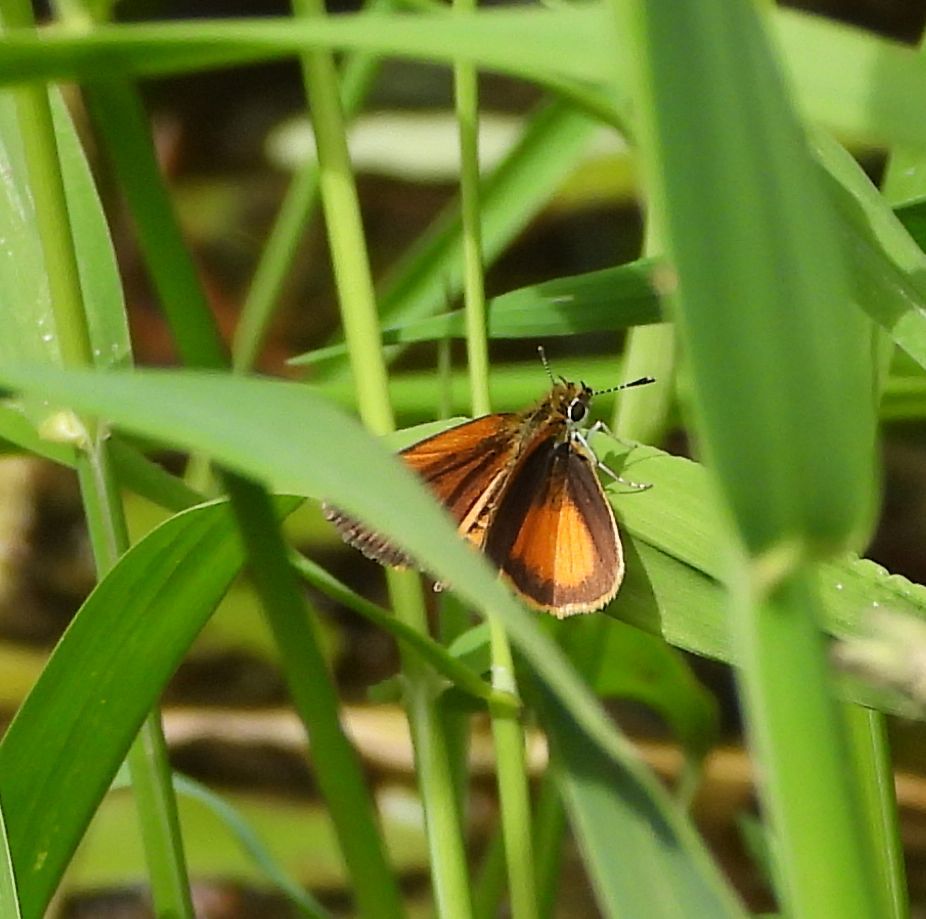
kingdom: Animalia
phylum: Arthropoda
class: Insecta
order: Lepidoptera
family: Hesperiidae
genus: Ancyloxypha
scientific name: Ancyloxypha numitor
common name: Least skipper
